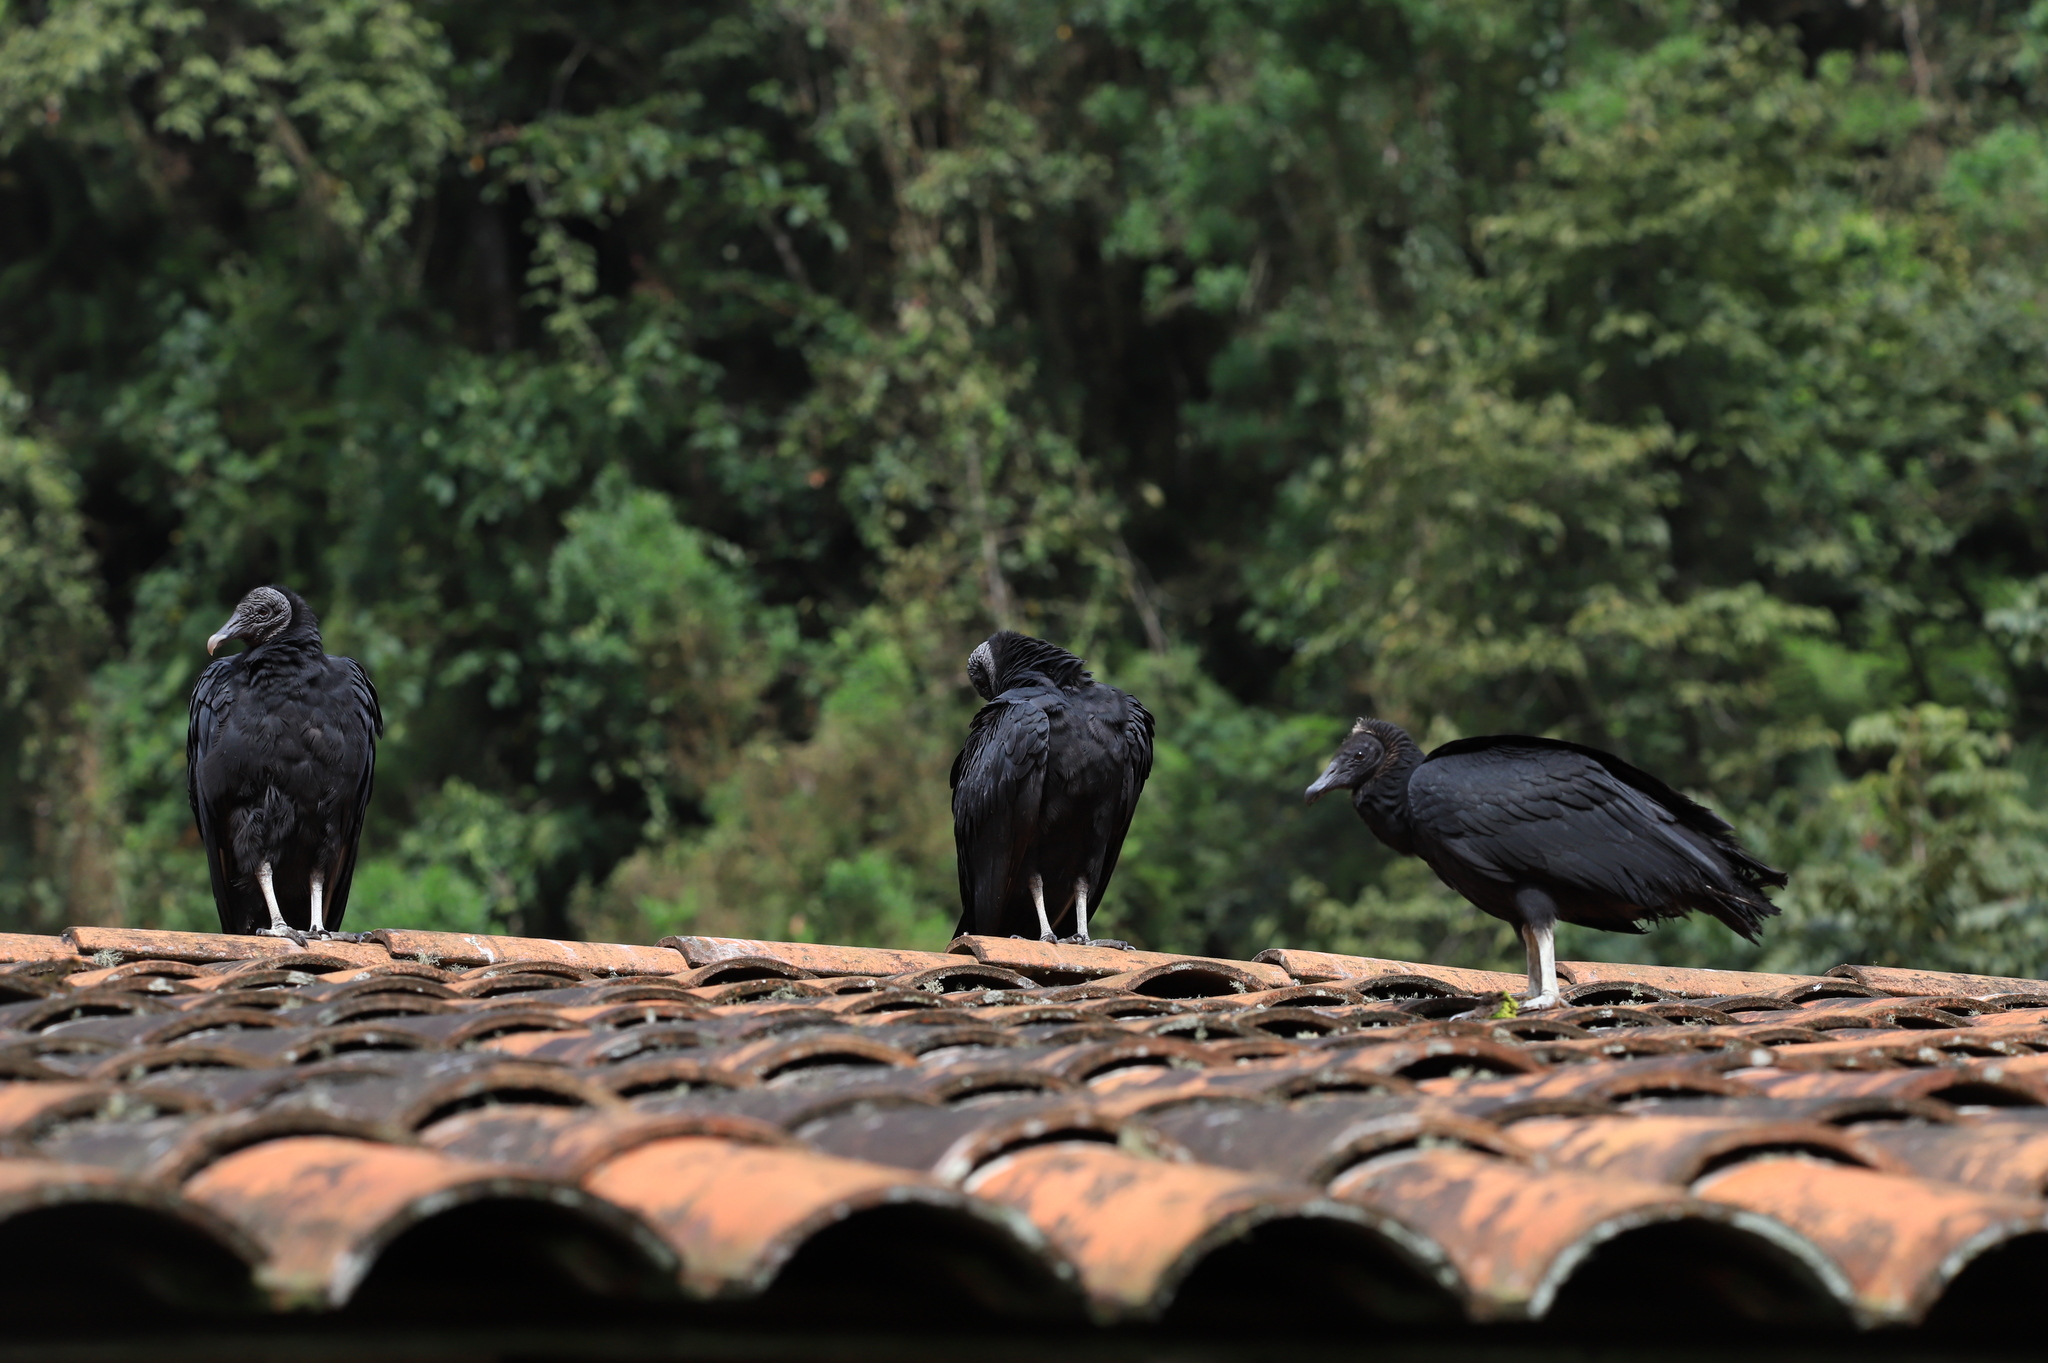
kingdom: Animalia
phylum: Chordata
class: Aves
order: Accipitriformes
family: Cathartidae
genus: Coragyps
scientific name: Coragyps atratus
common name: Black vulture
